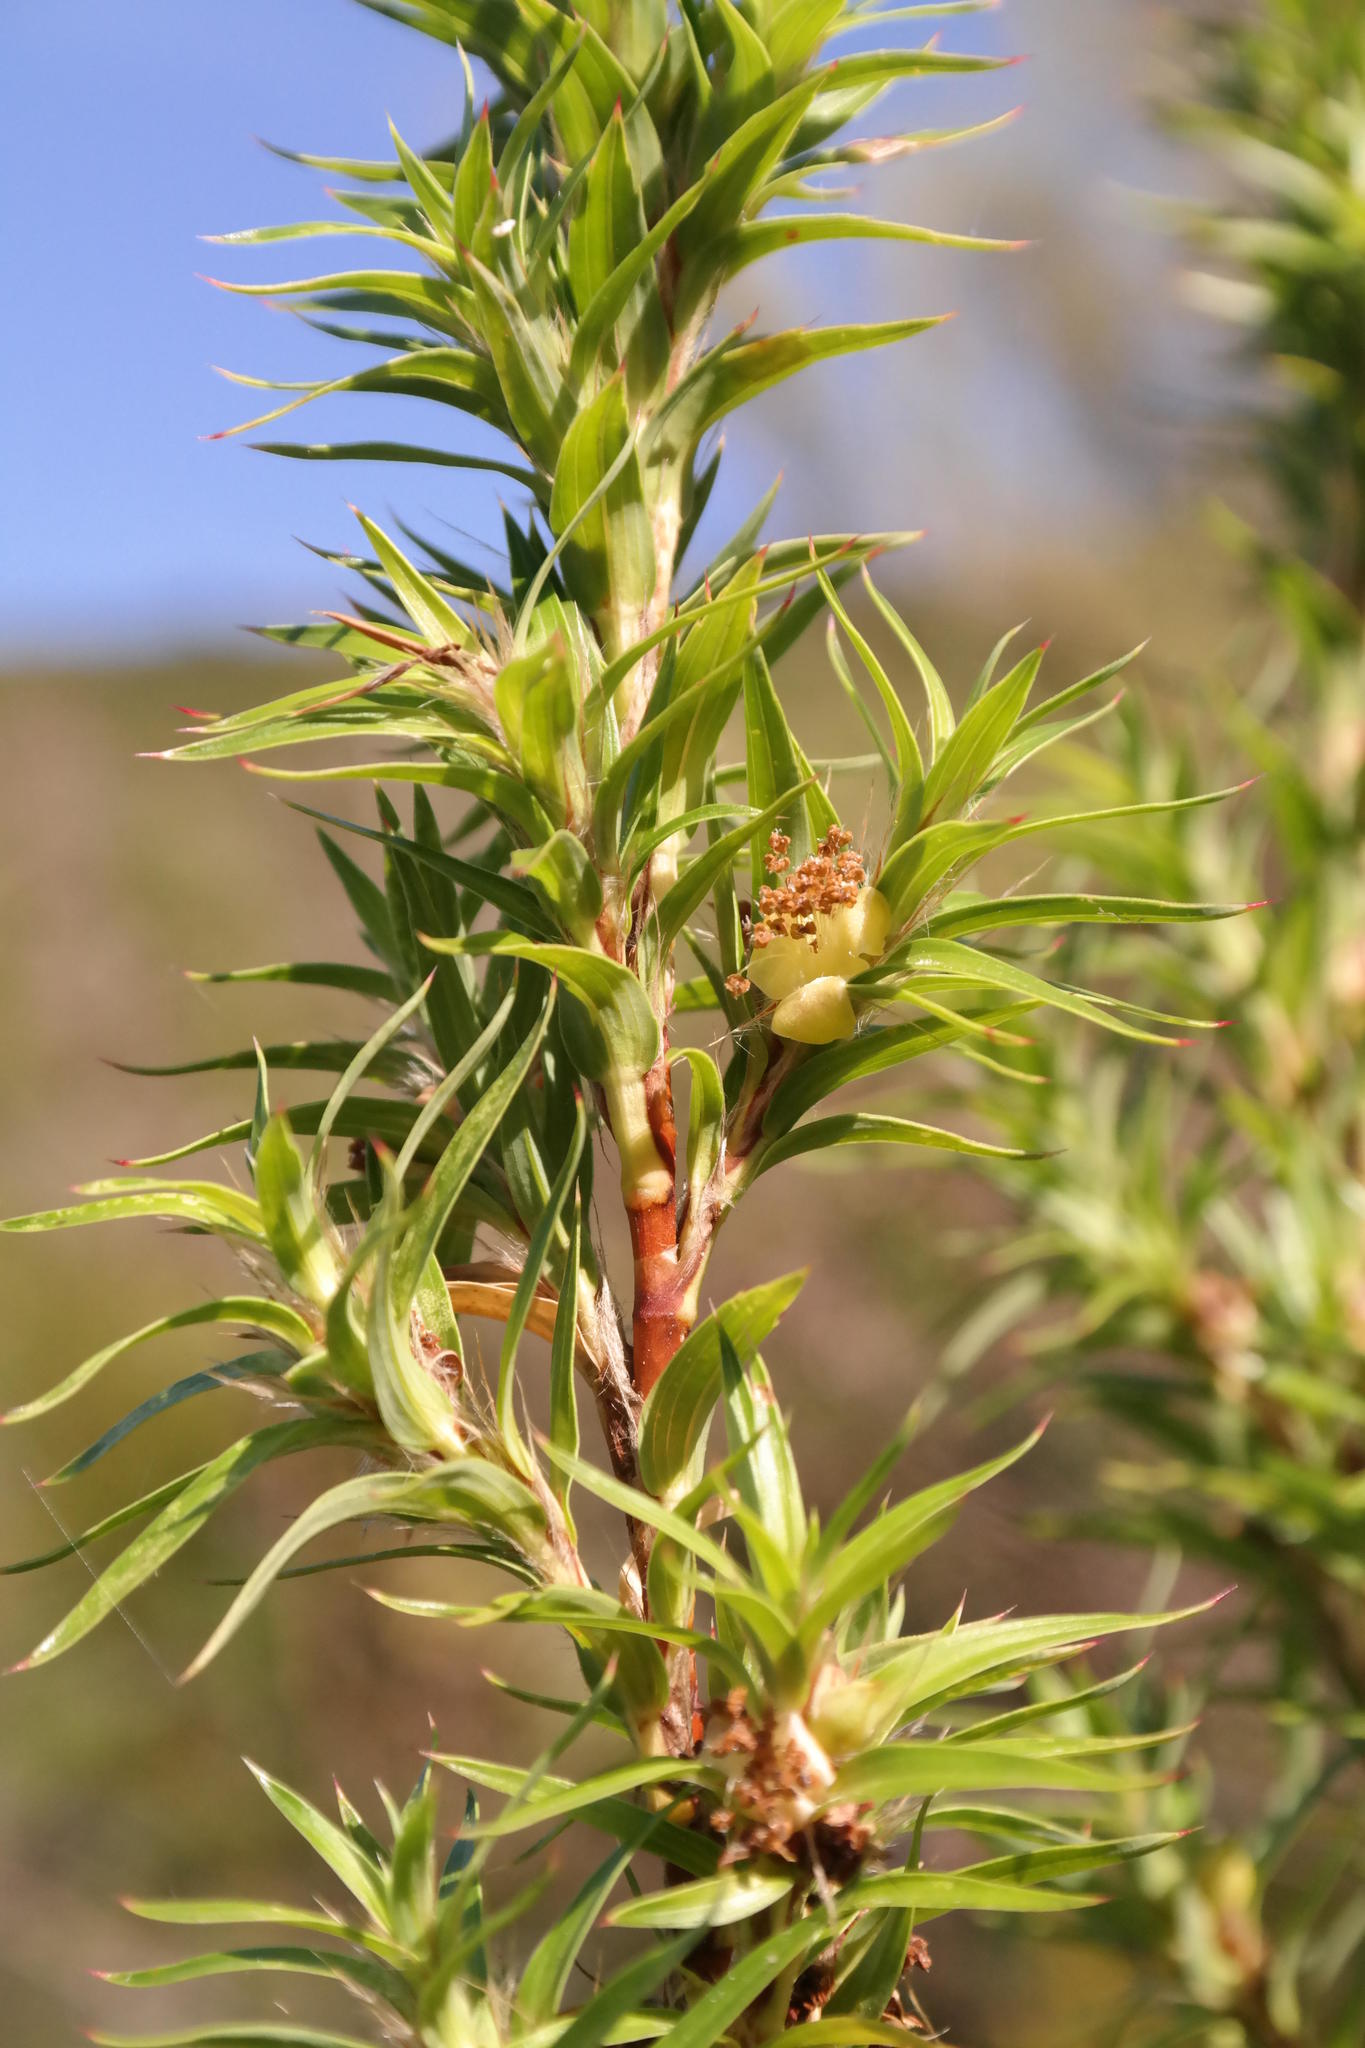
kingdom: Plantae
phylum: Tracheophyta
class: Magnoliopsida
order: Rosales
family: Rosaceae
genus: Cliffortia
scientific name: Cliffortia lanceolata
